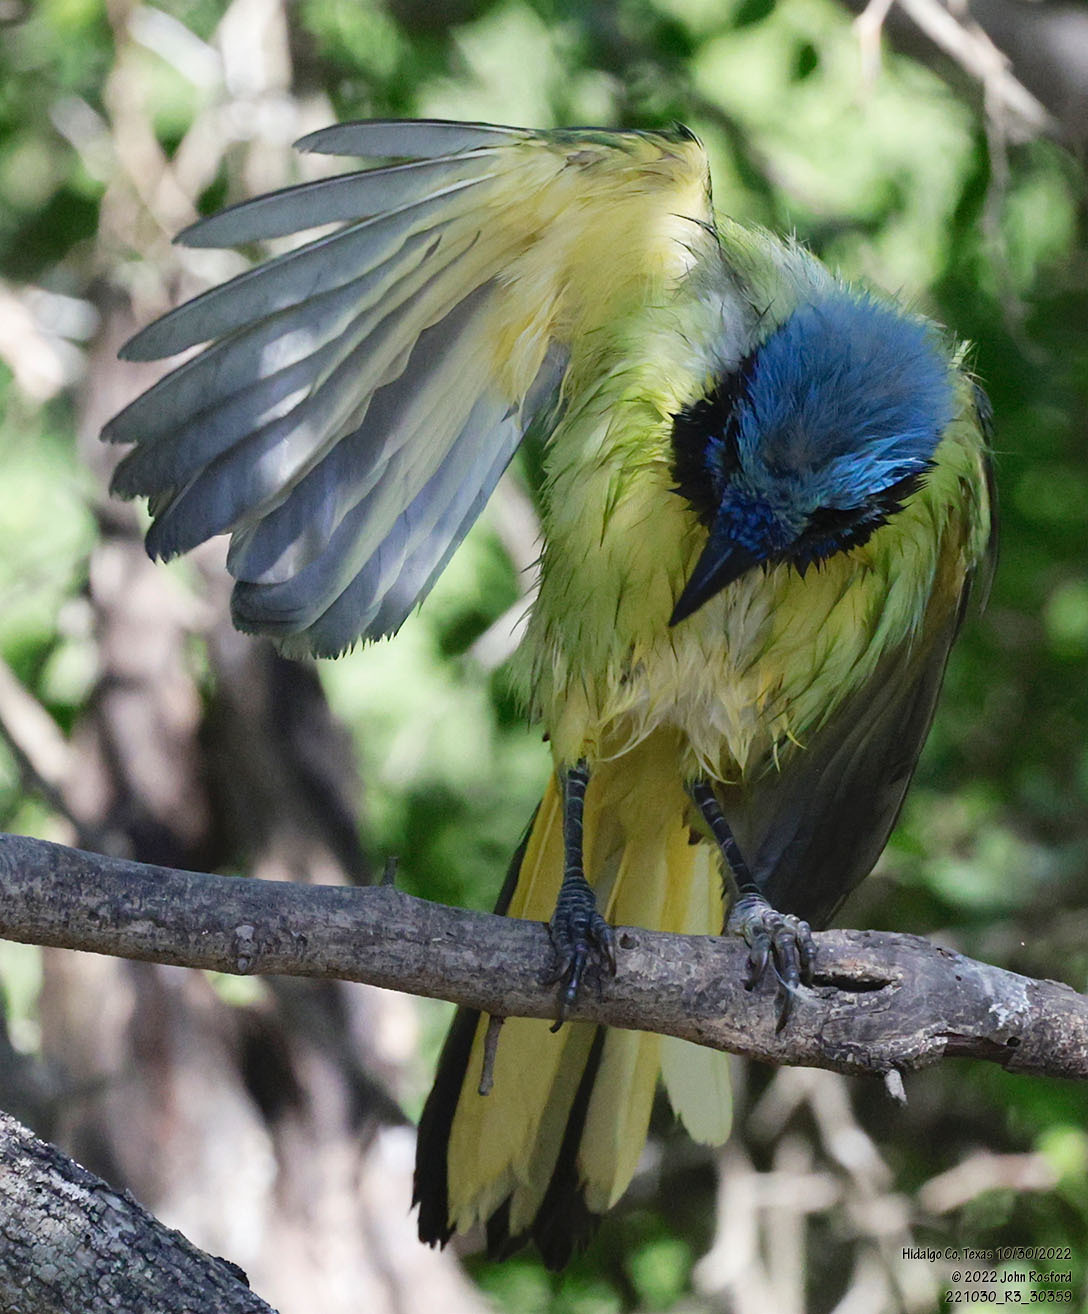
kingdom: Animalia
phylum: Chordata
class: Aves
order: Passeriformes
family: Corvidae
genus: Cyanocorax
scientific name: Cyanocorax yncas
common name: Green jay
